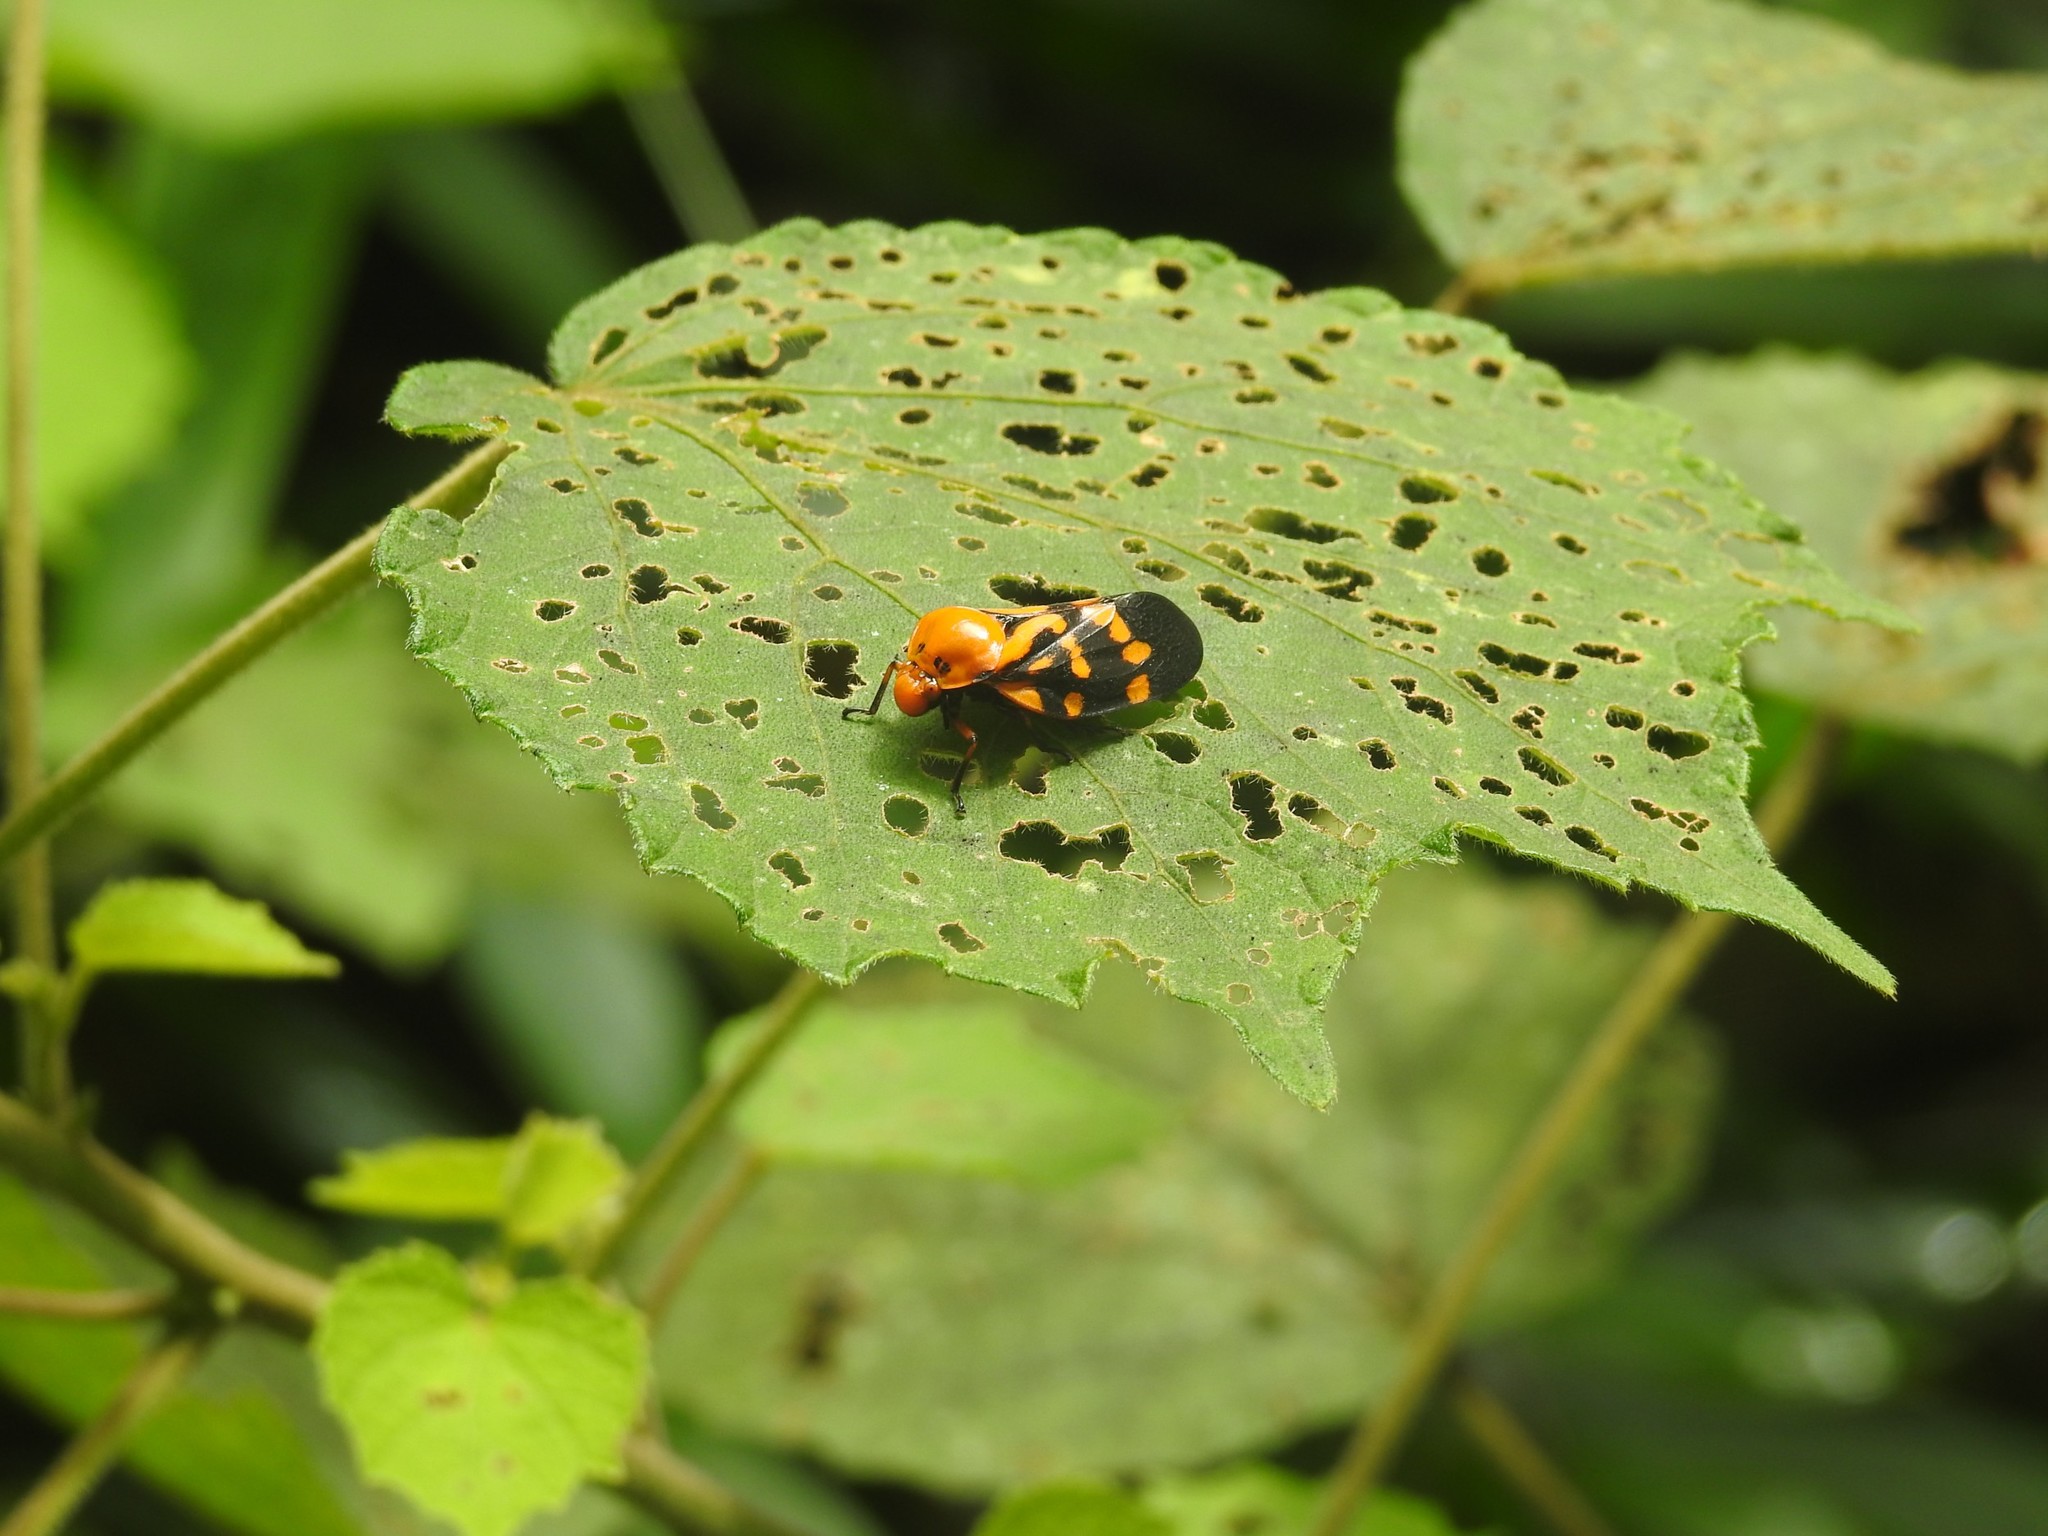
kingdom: Animalia
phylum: Arthropoda
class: Insecta
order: Hemiptera
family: Cercopidae
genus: Cosmoscarta
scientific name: Cosmoscarta naiteara
